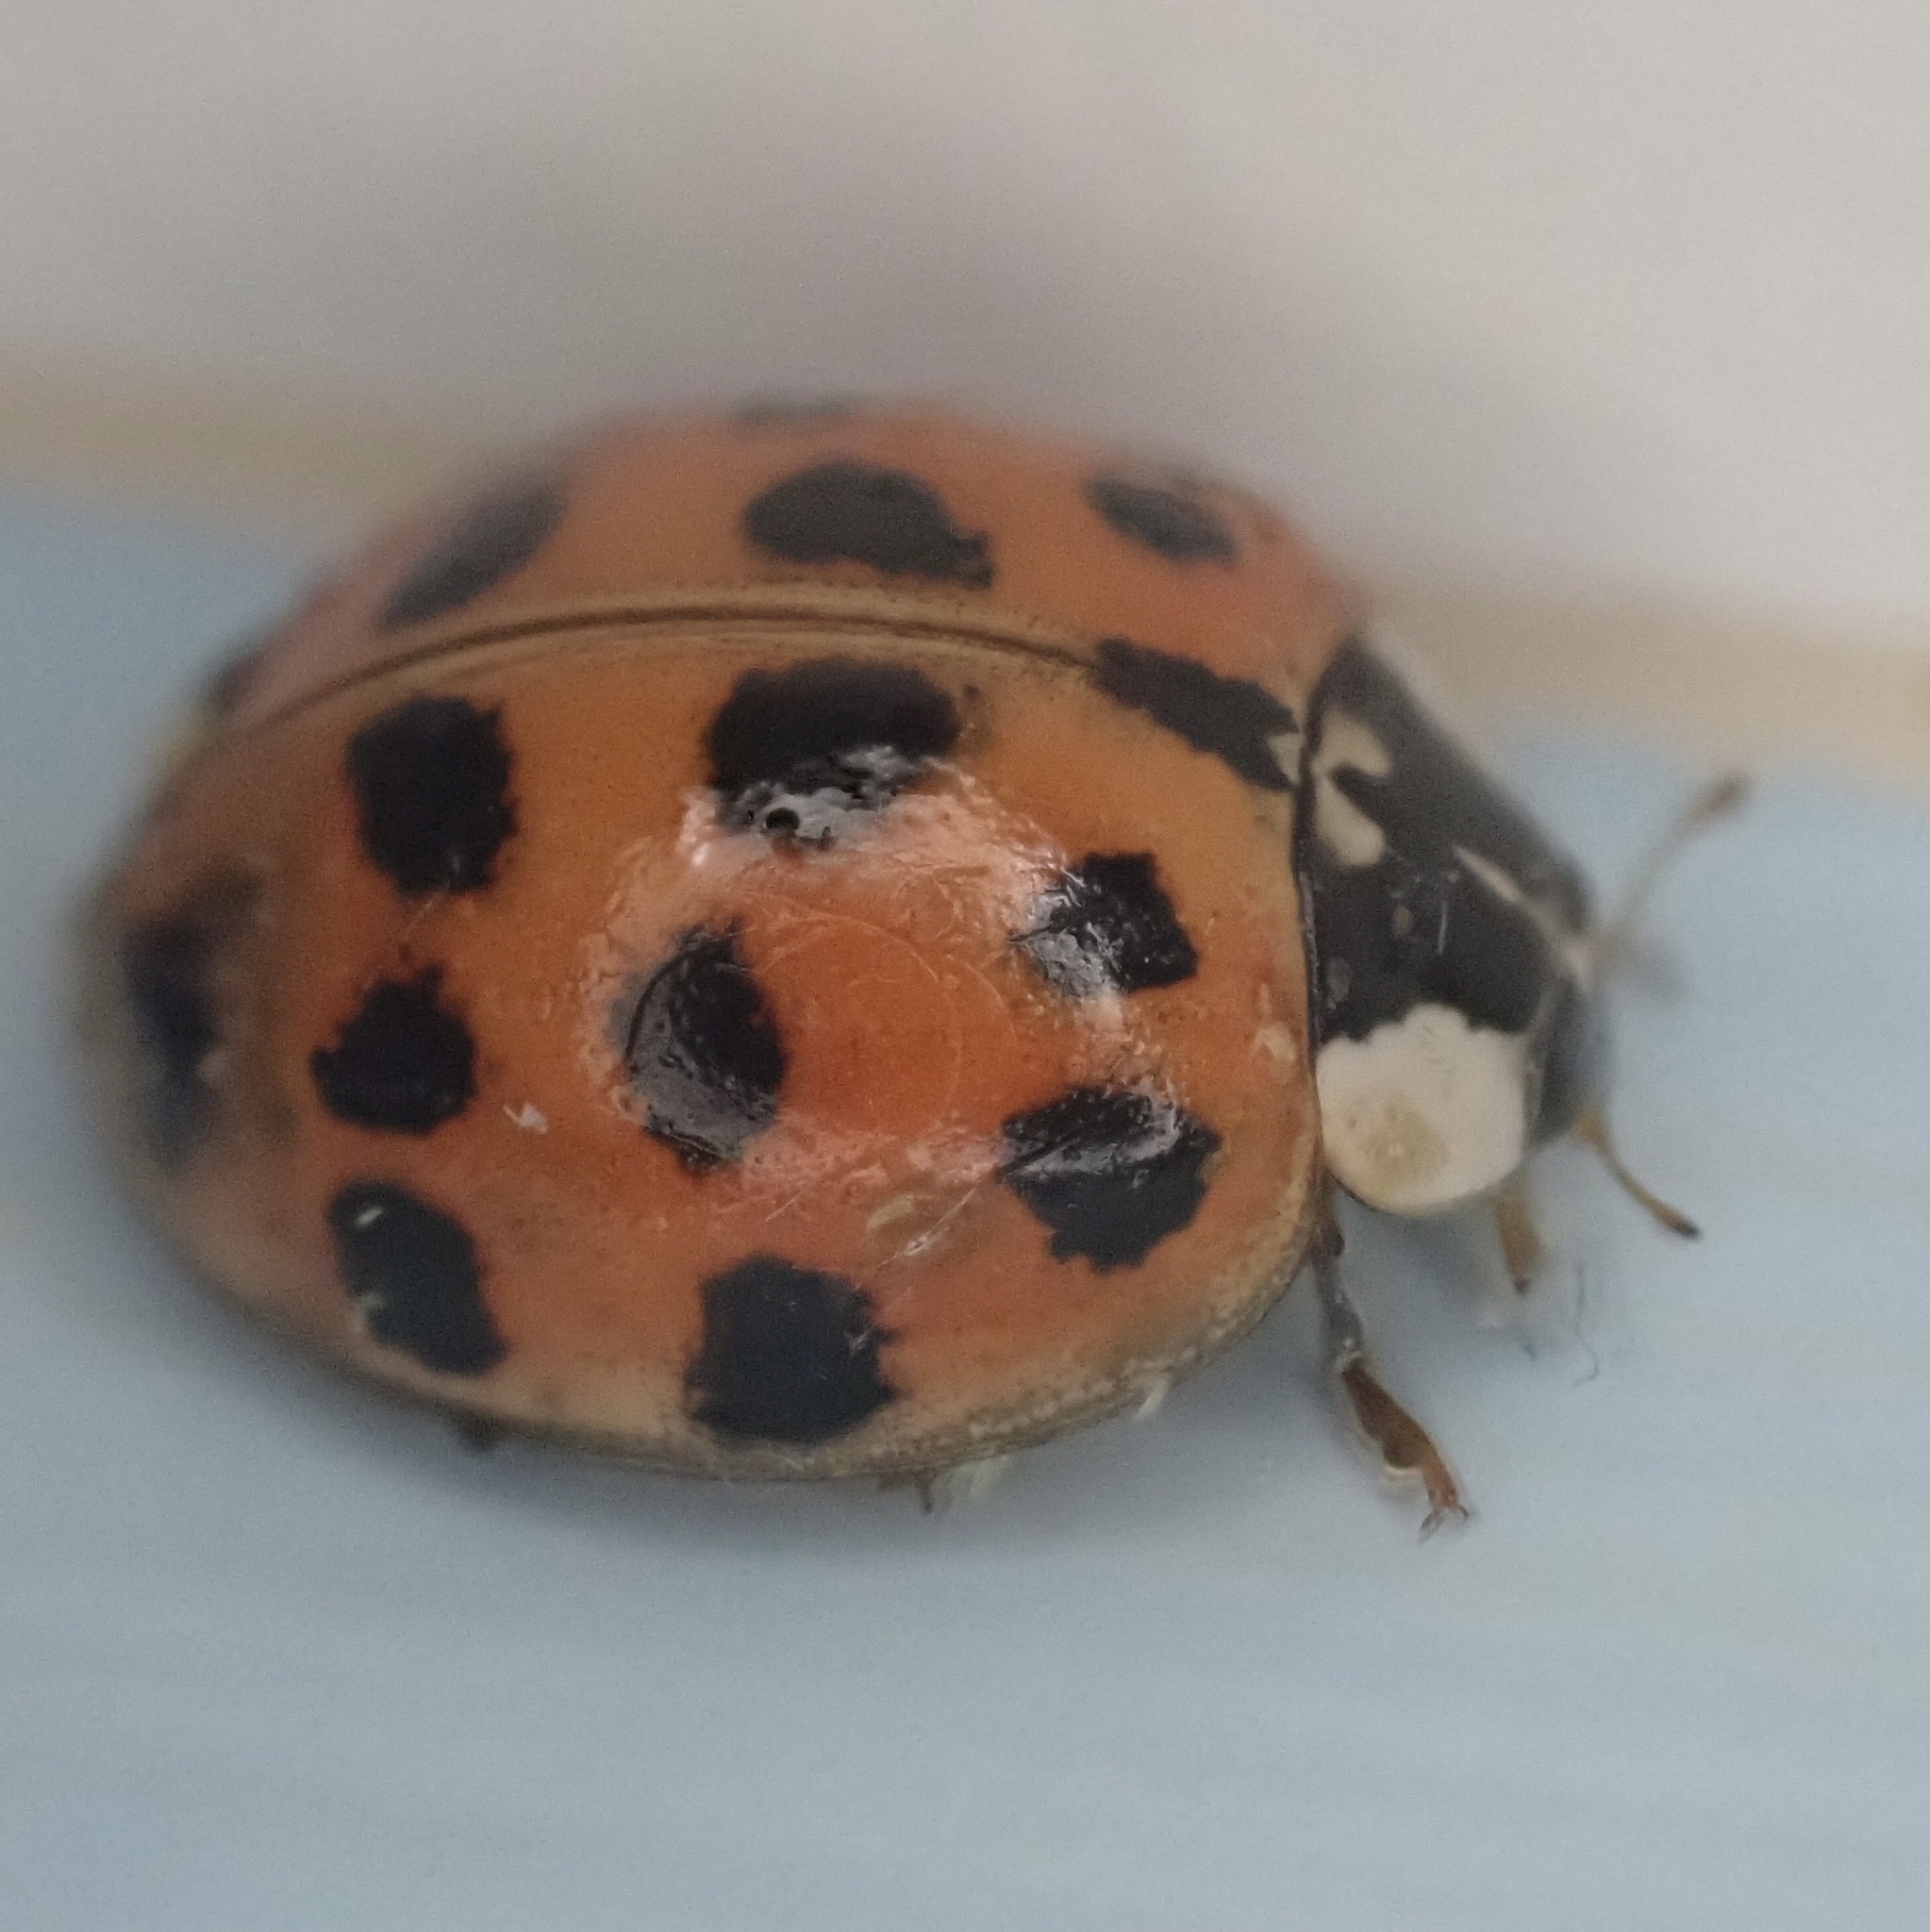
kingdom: Animalia
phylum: Arthropoda
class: Insecta
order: Coleoptera
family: Coccinellidae
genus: Harmonia
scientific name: Harmonia axyridis
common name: Harlequin ladybird
